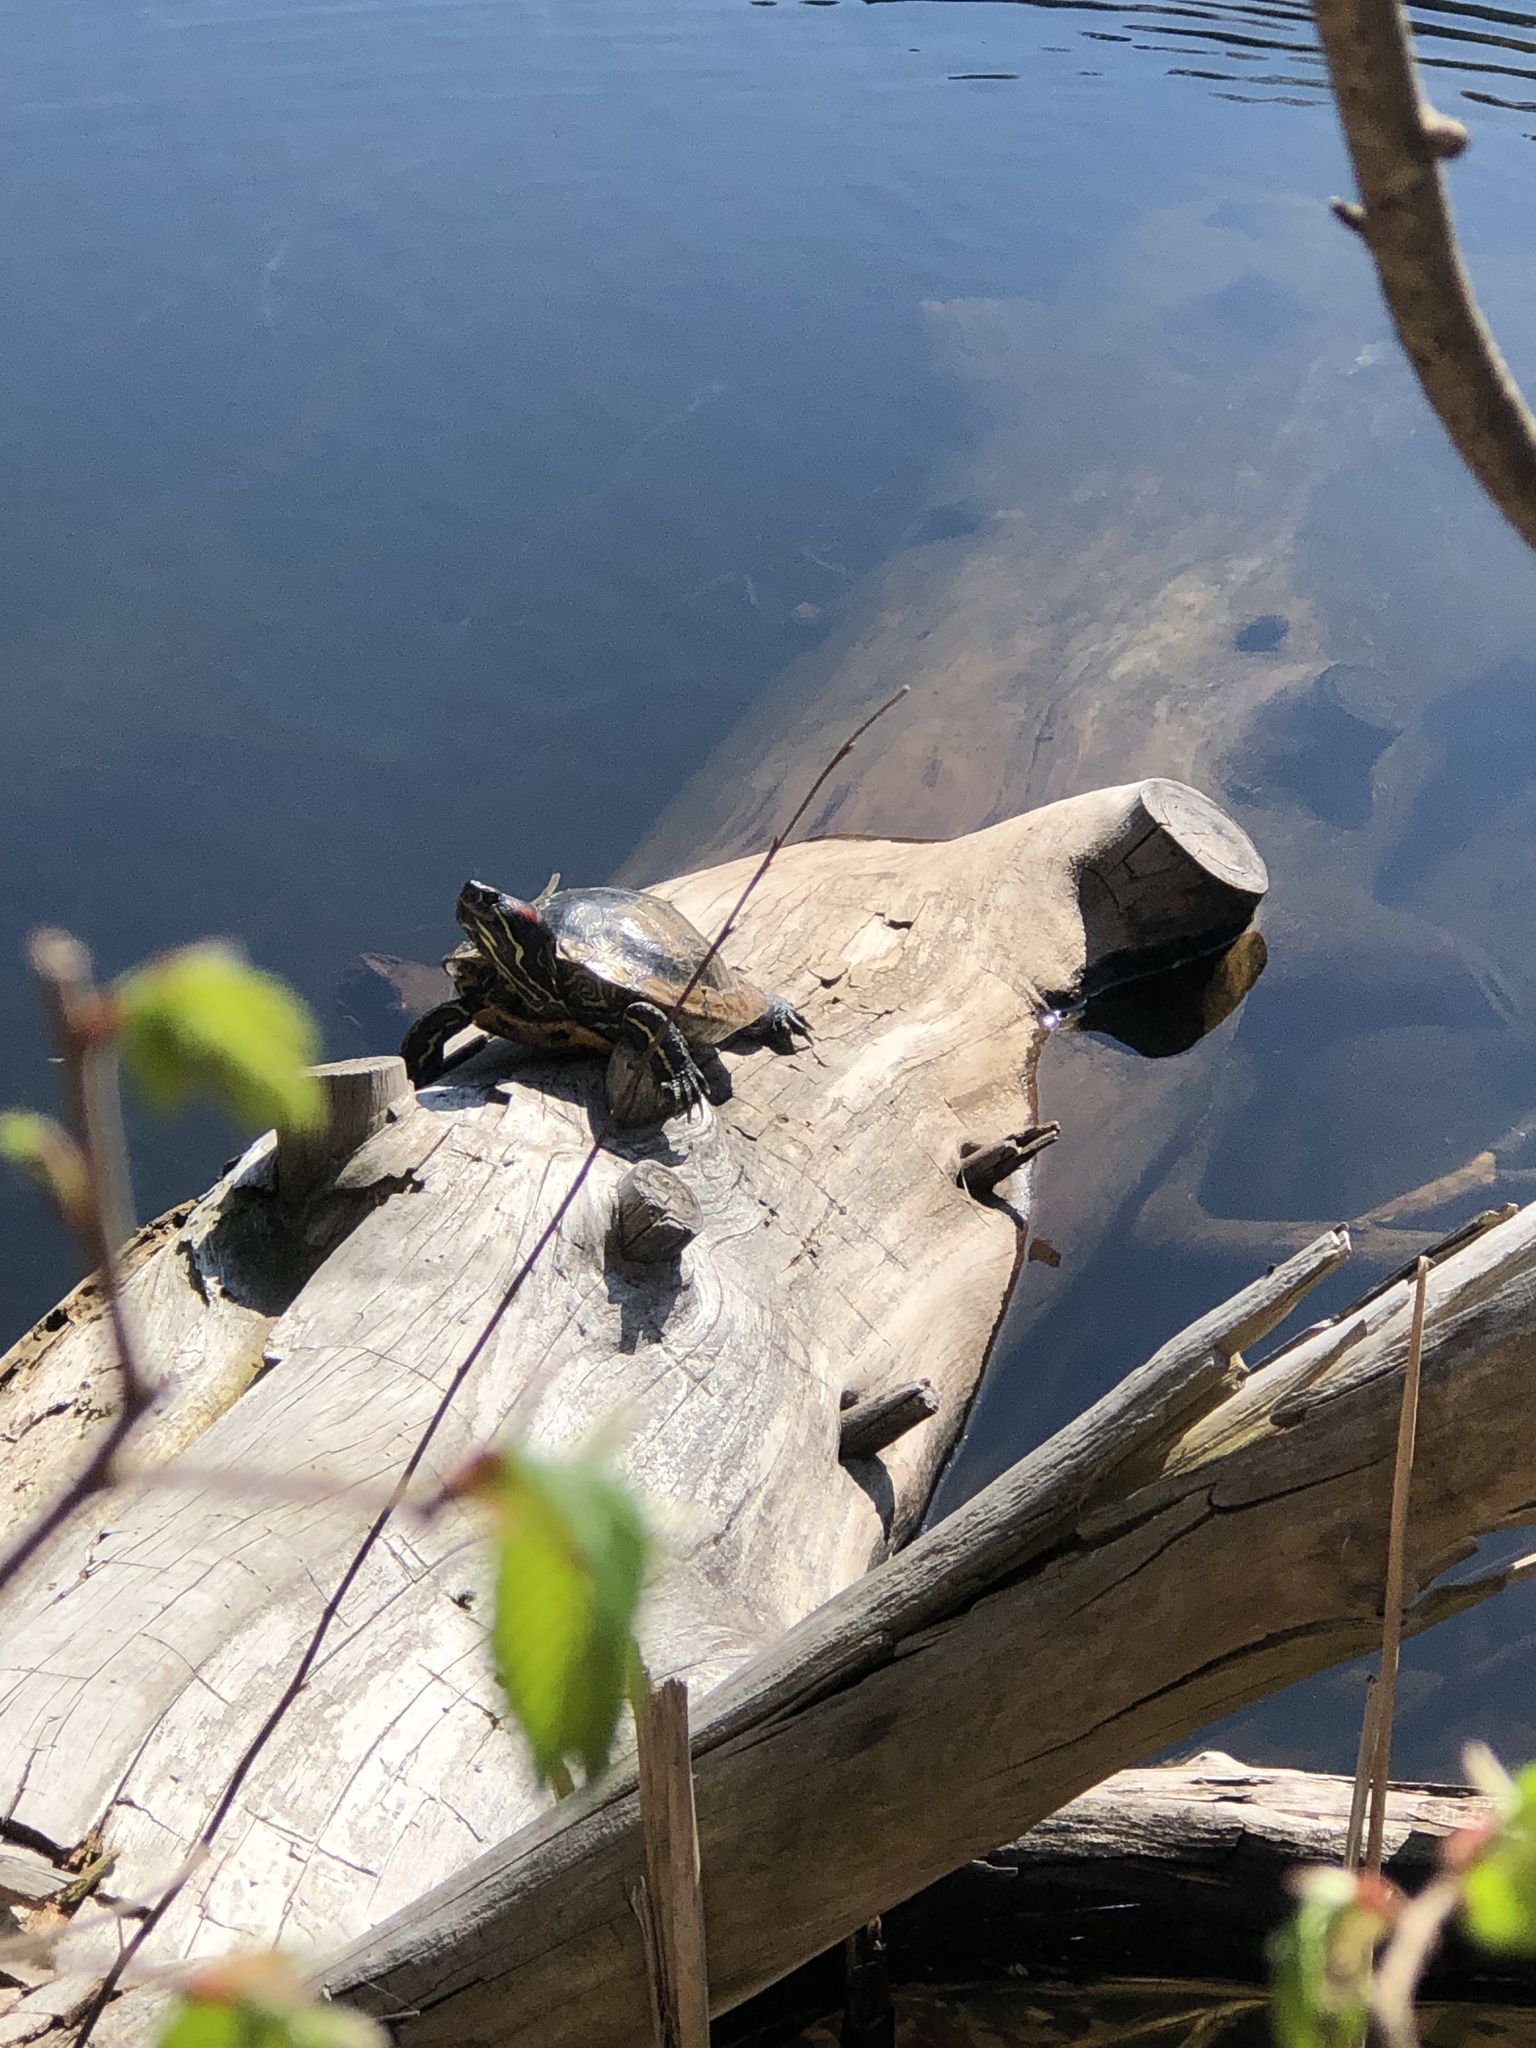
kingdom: Animalia
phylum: Chordata
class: Testudines
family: Emydidae
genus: Trachemys
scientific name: Trachemys scripta
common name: Slider
